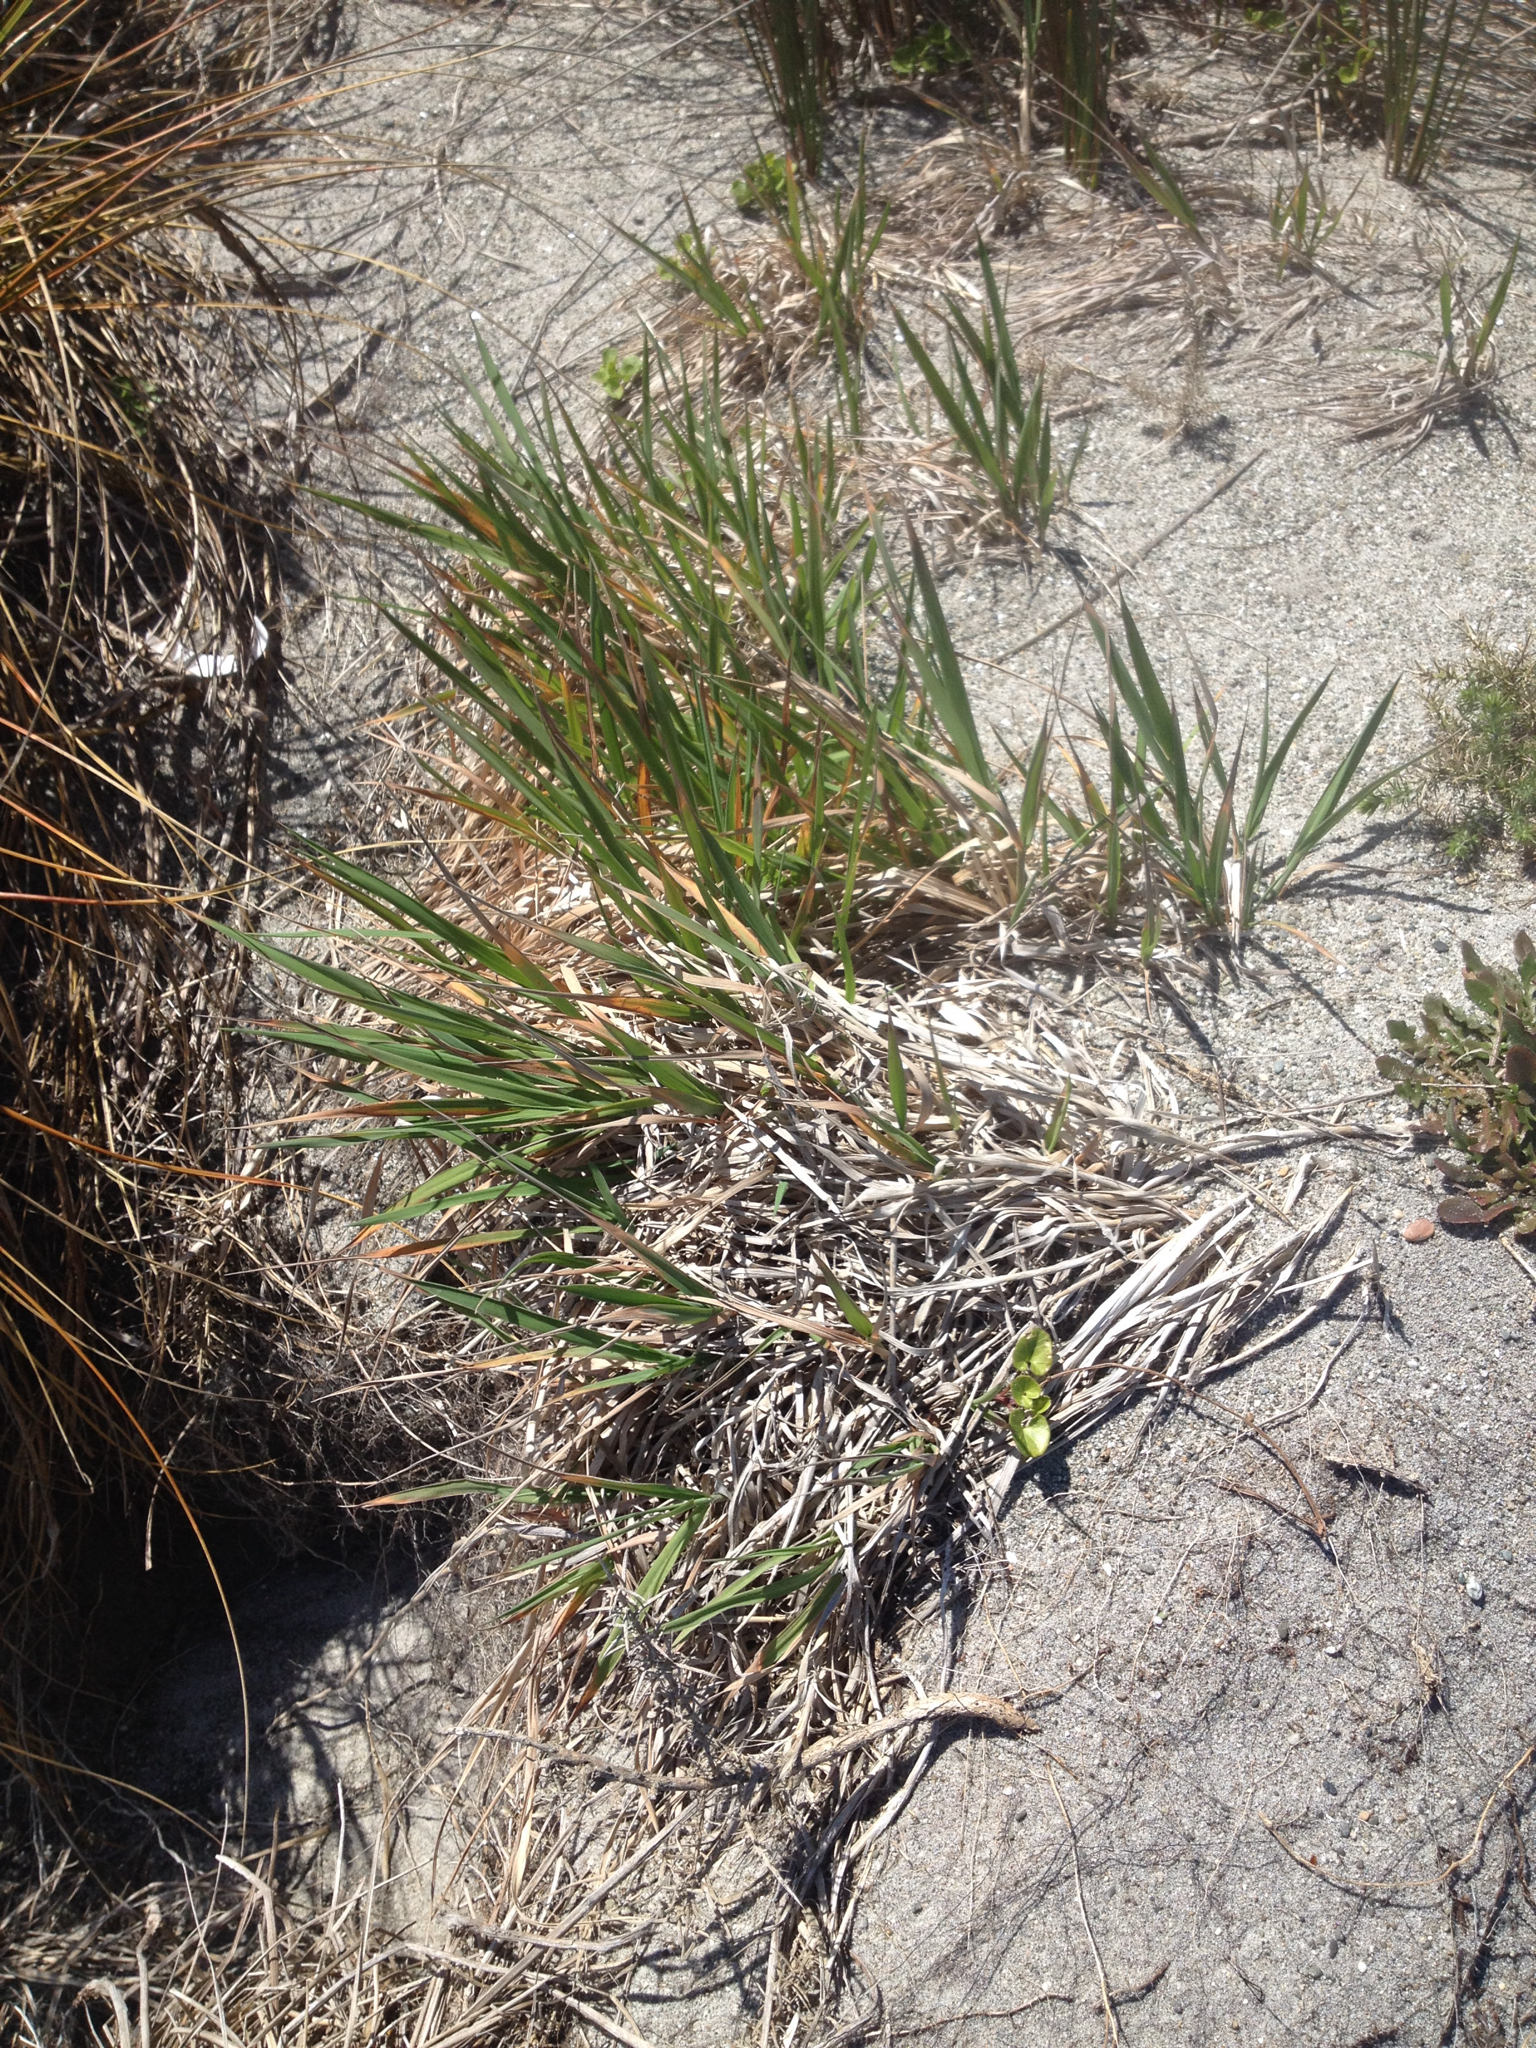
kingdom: Plantae
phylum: Tracheophyta
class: Liliopsida
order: Poales
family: Poaceae
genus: Lachnagrostis
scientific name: Lachnagrostis billardierei
